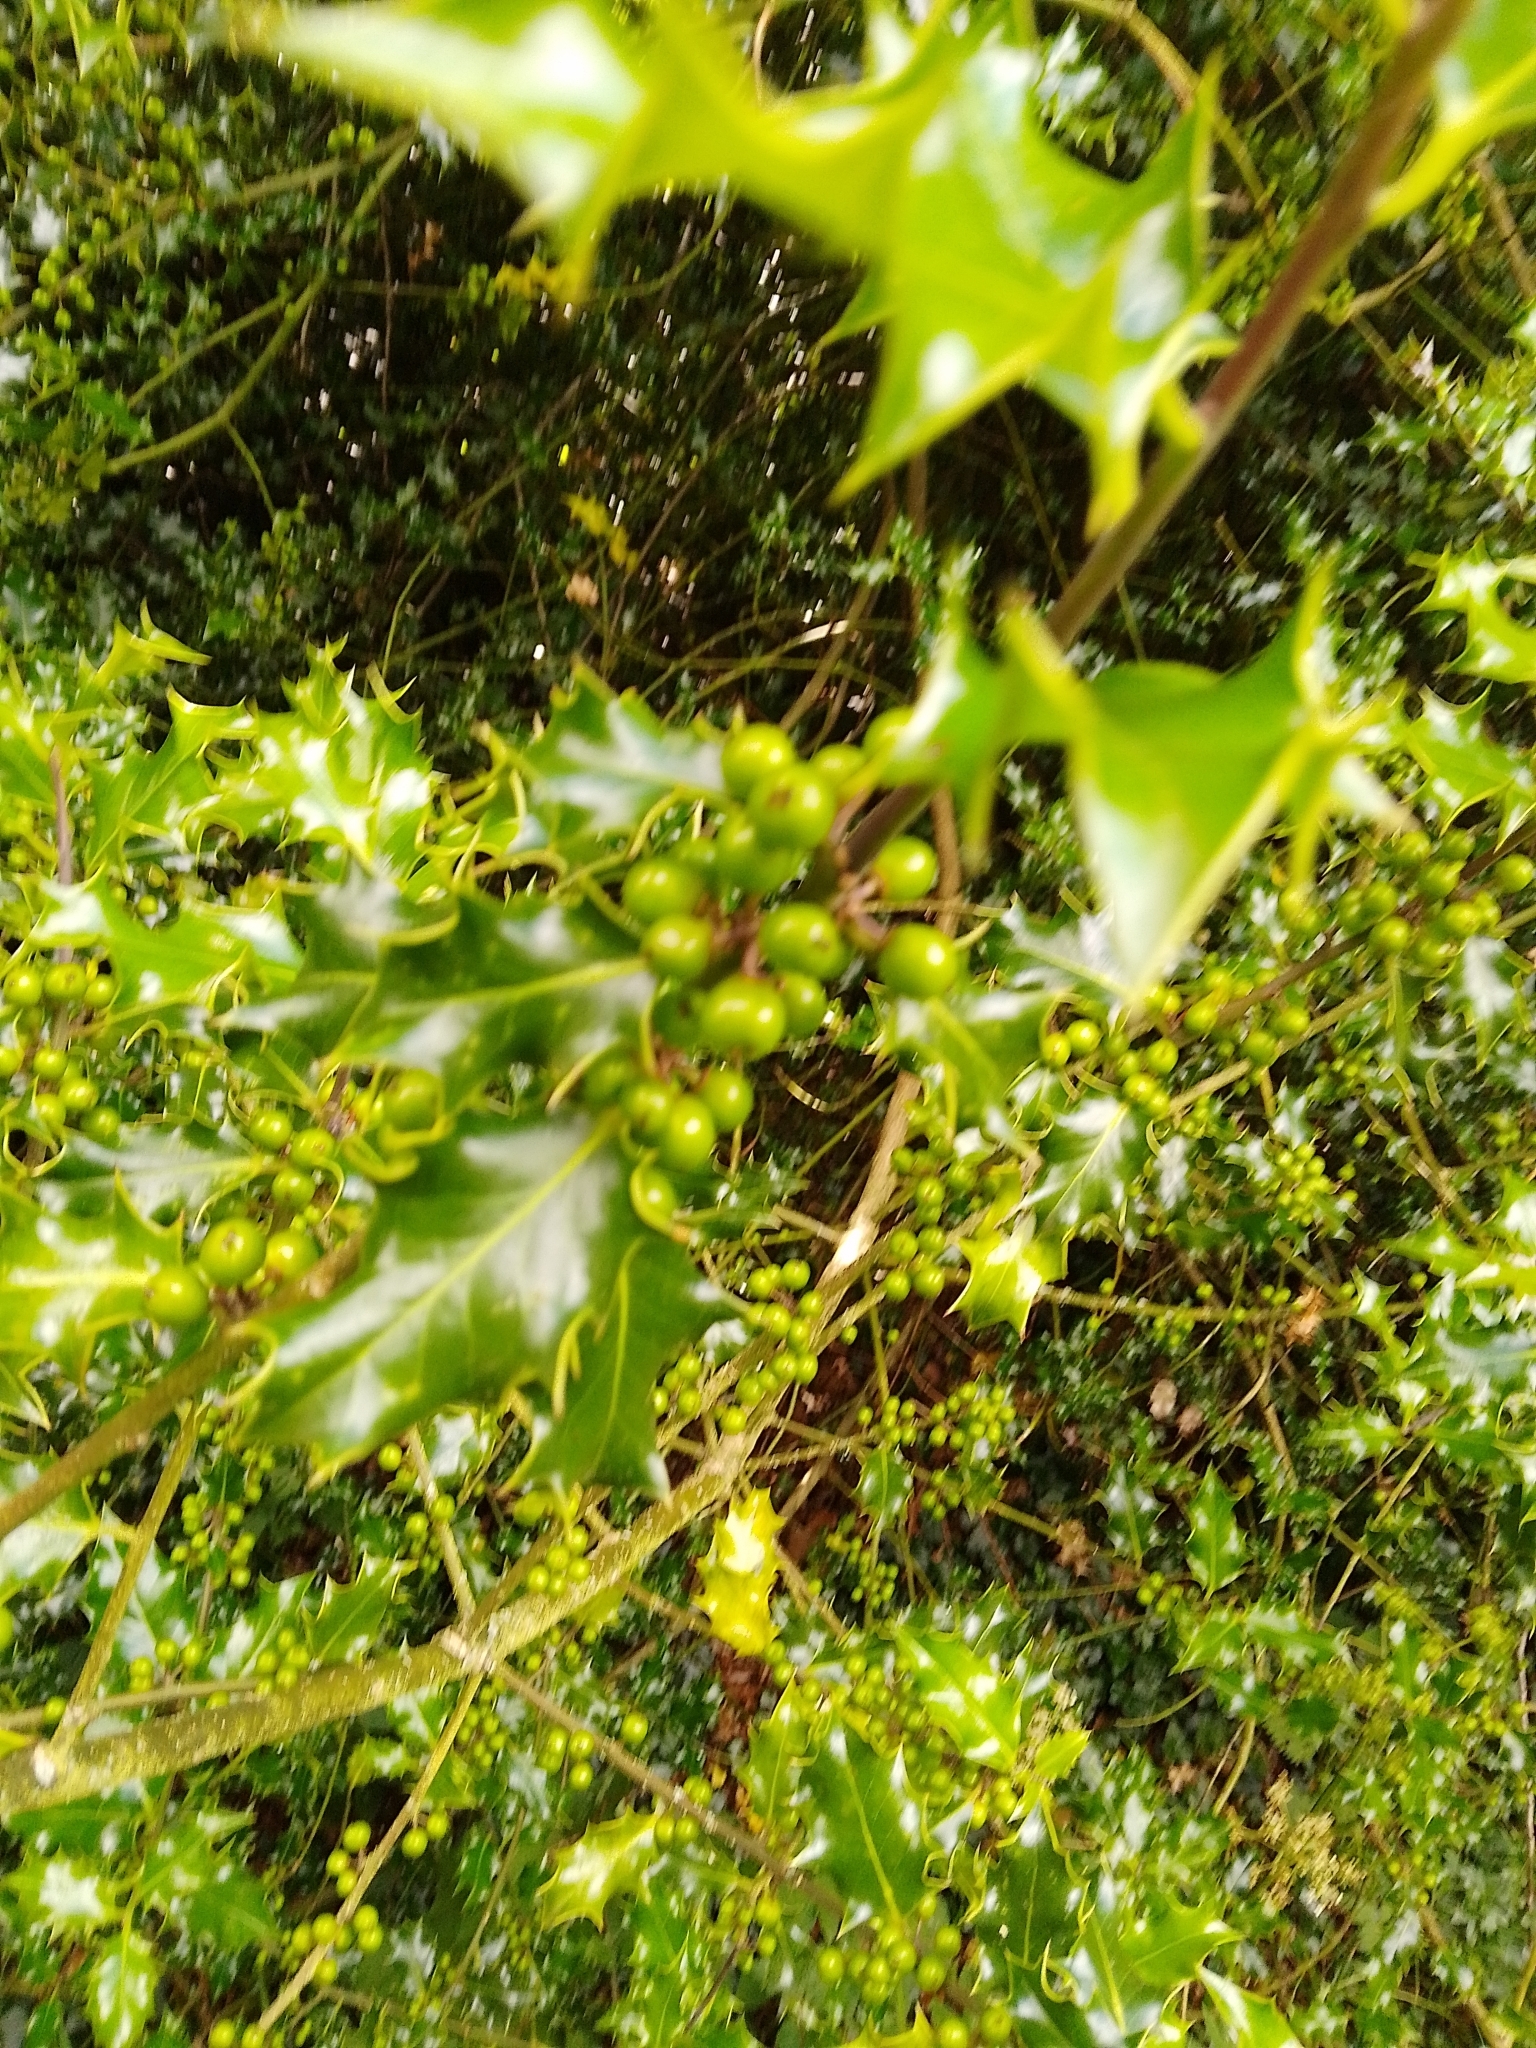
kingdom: Plantae
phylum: Tracheophyta
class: Magnoliopsida
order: Aquifoliales
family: Aquifoliaceae
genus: Ilex
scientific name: Ilex aquifolium
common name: English holly
